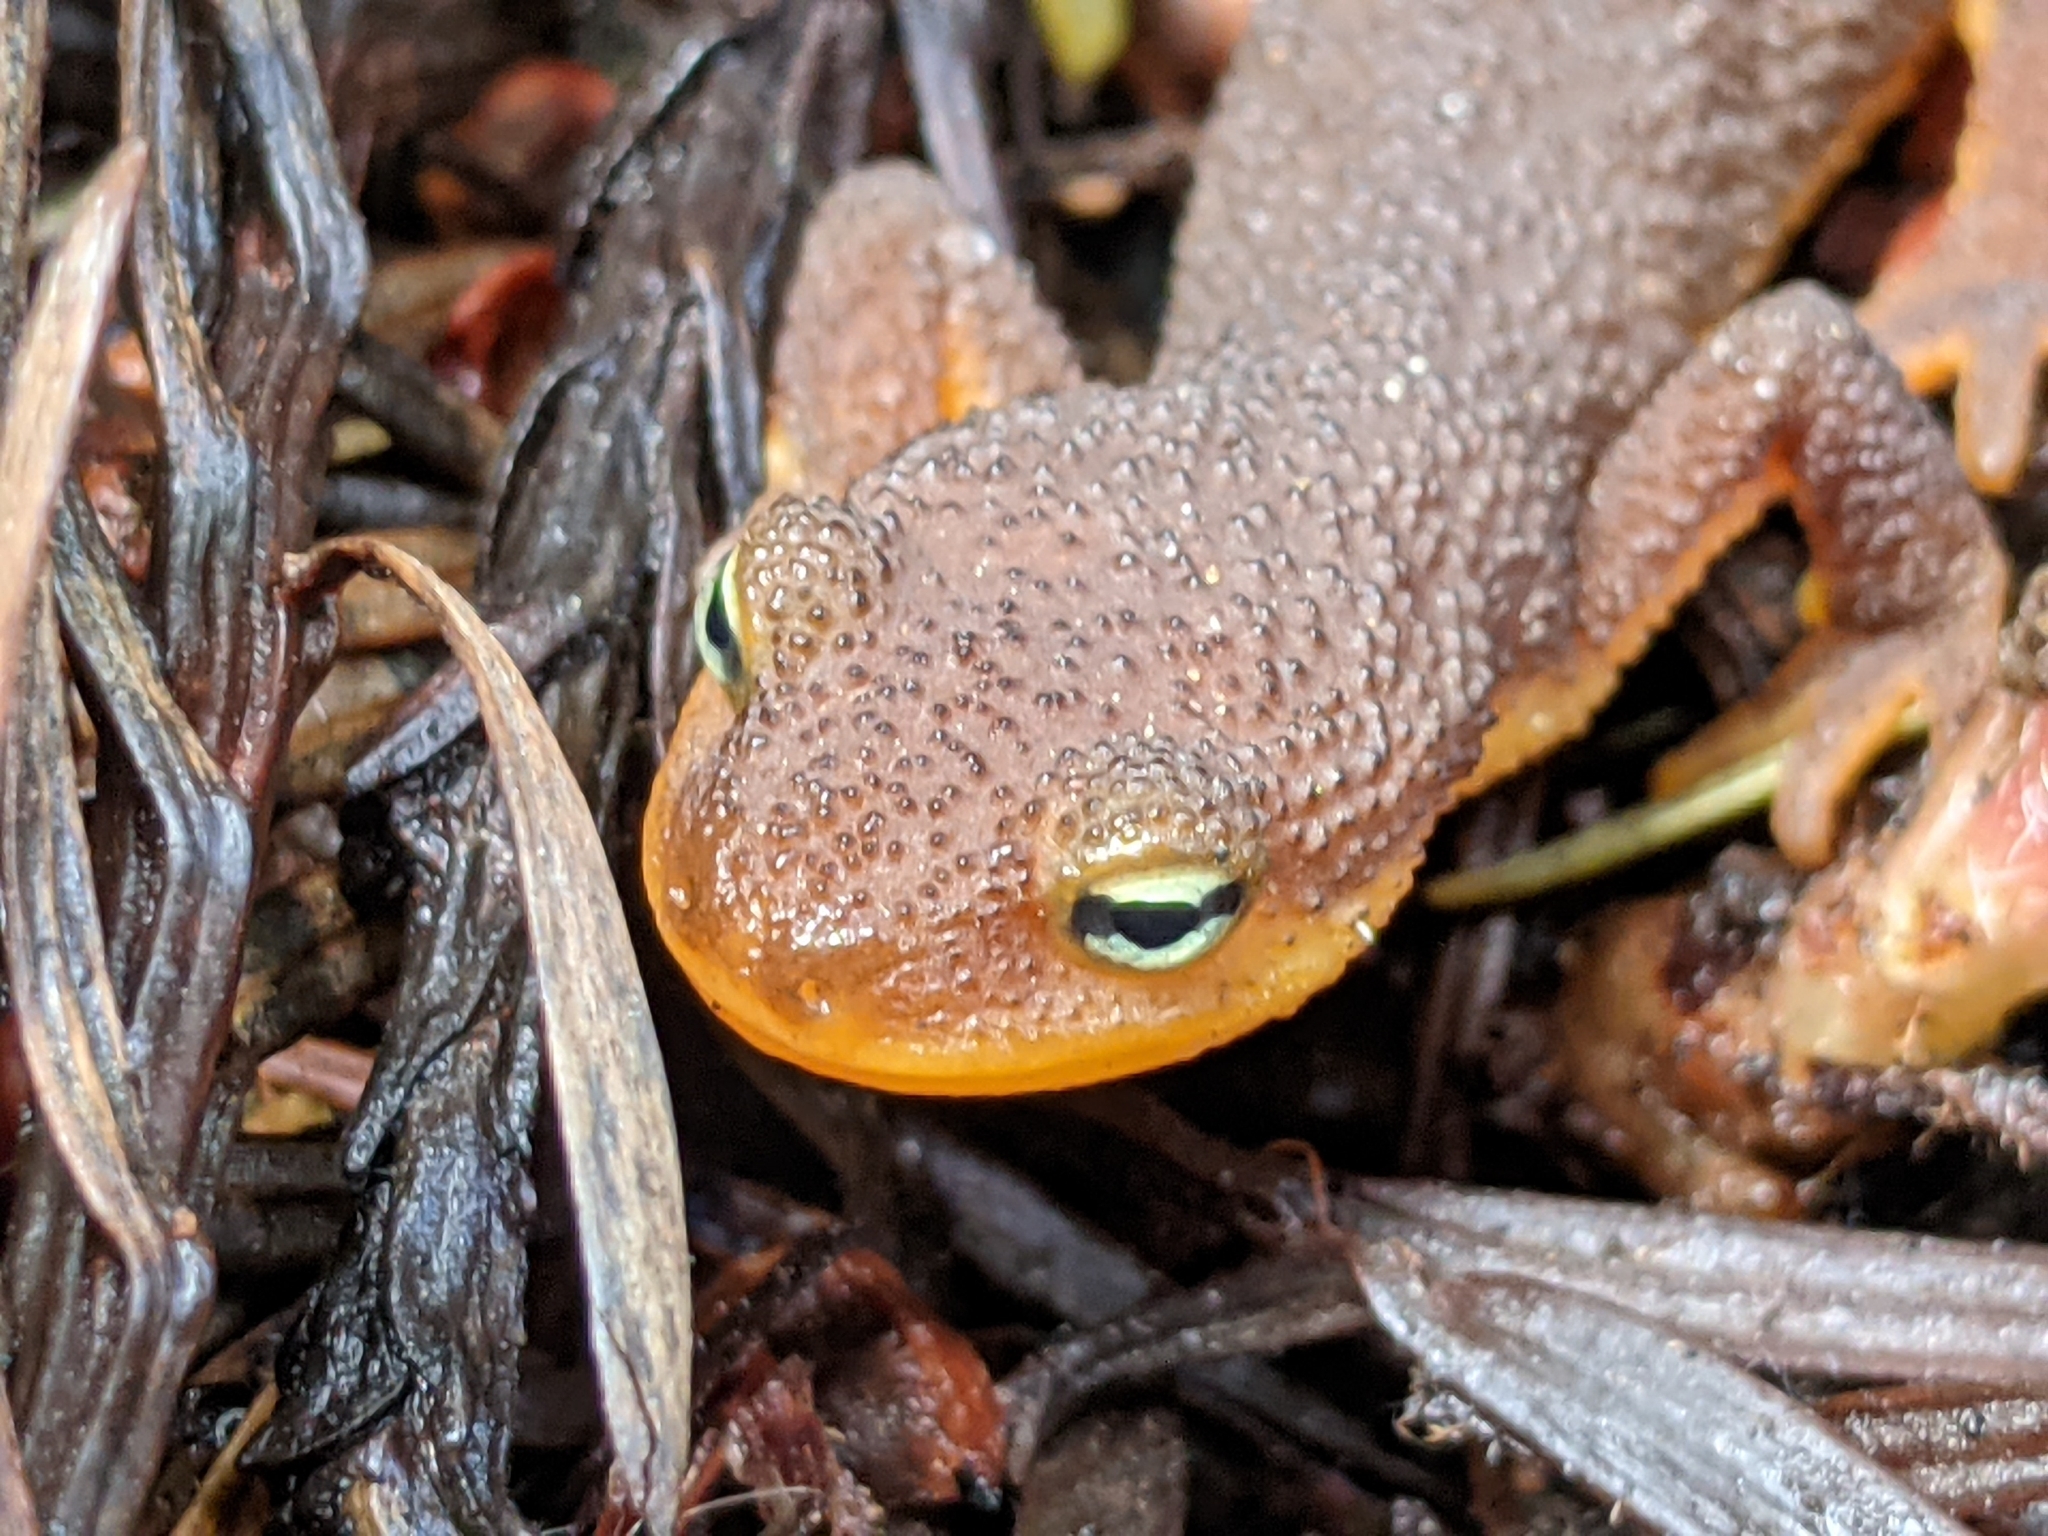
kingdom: Animalia
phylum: Chordata
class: Amphibia
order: Caudata
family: Salamandridae
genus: Taricha
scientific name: Taricha
